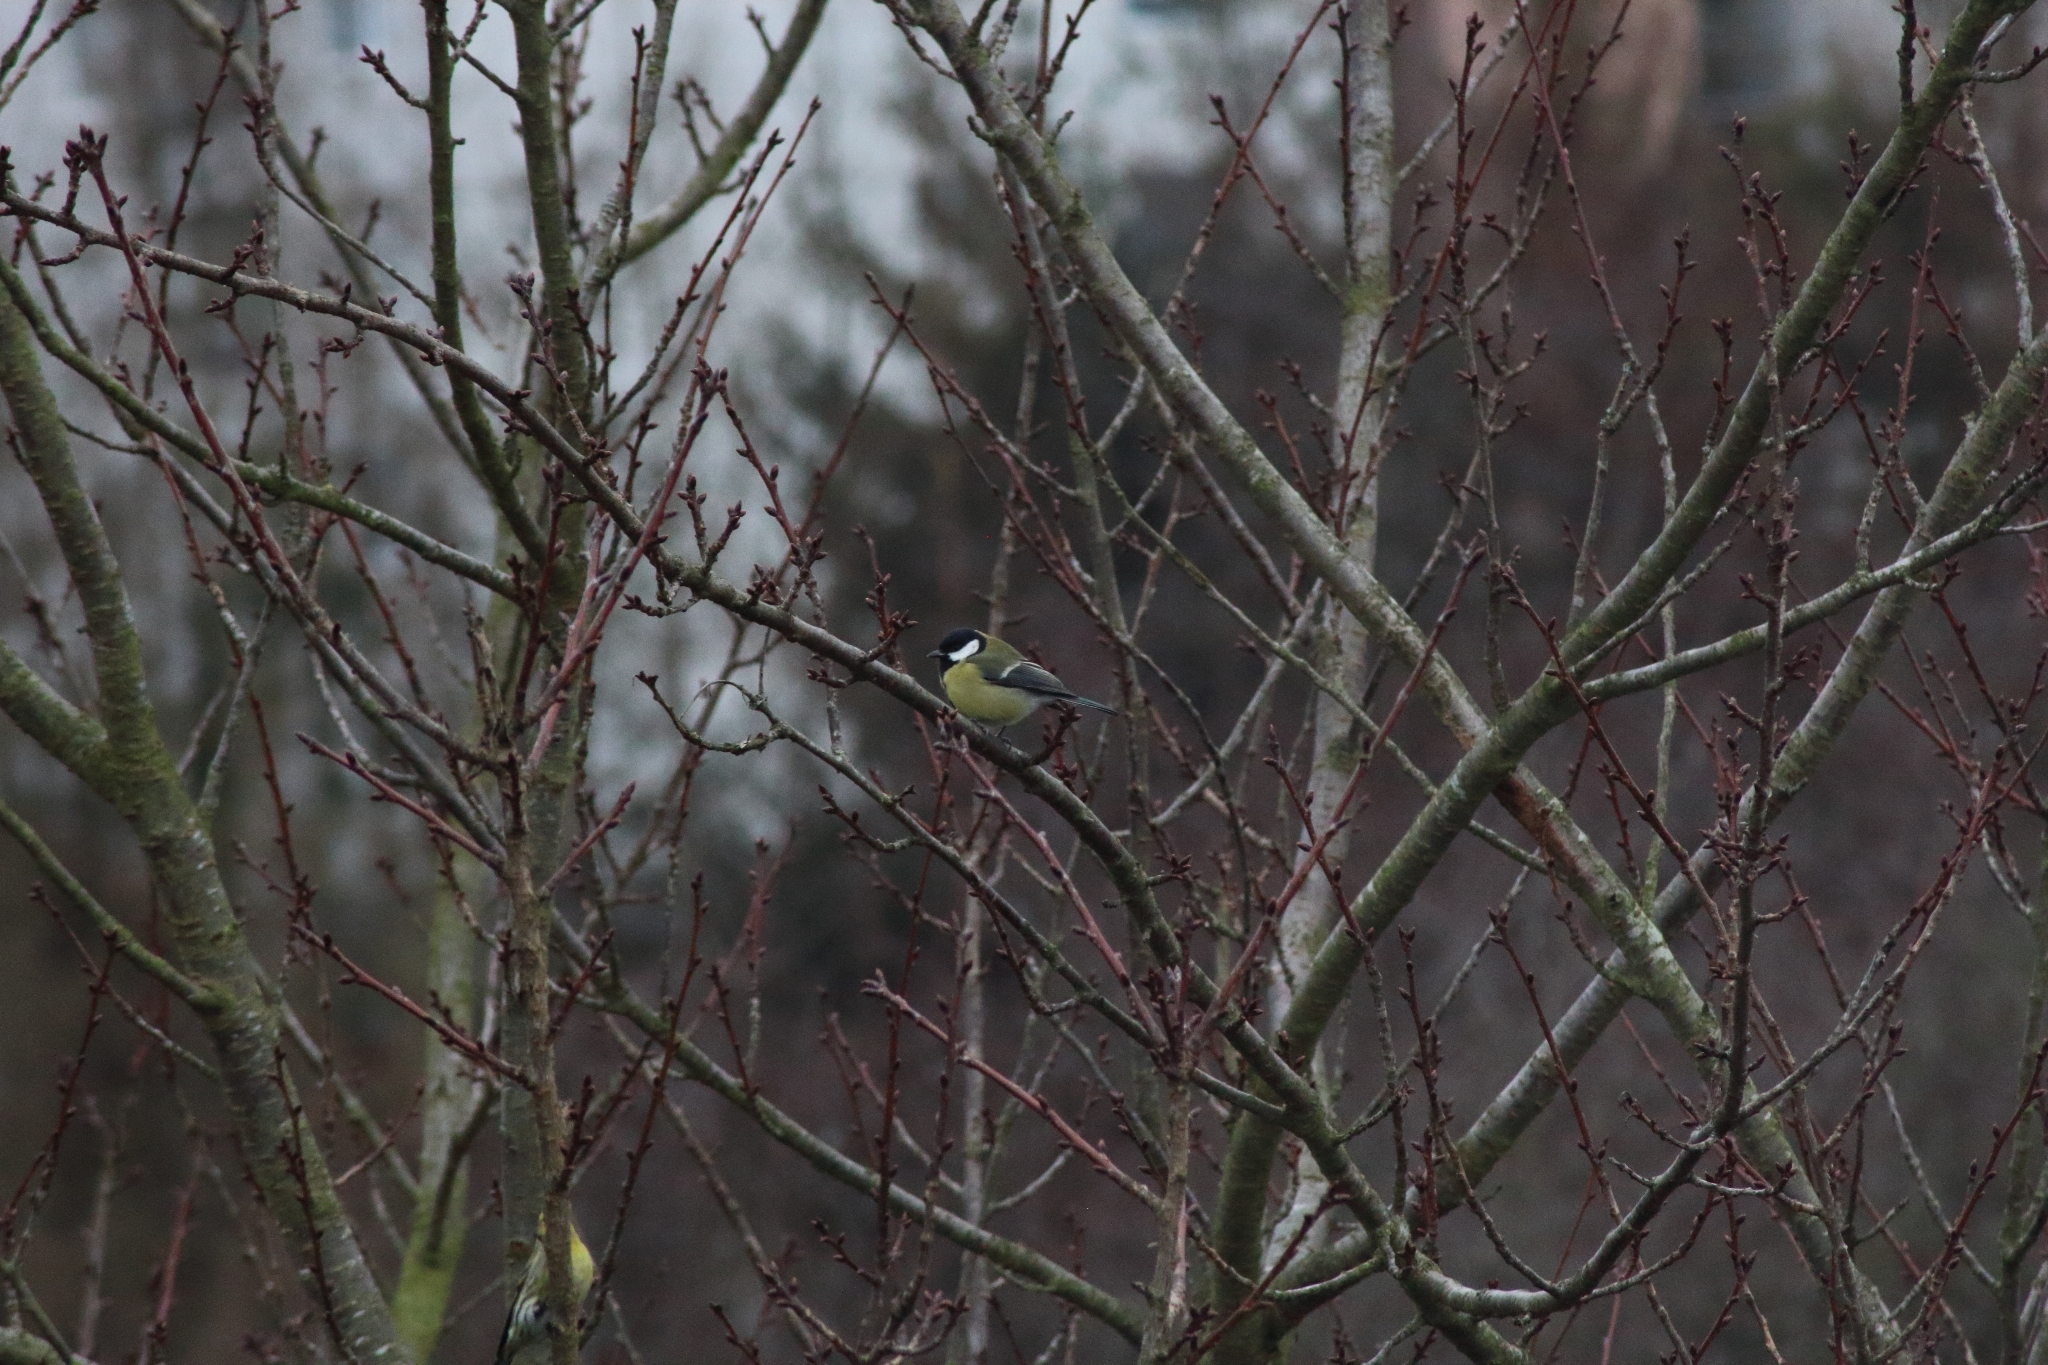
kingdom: Animalia
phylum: Chordata
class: Aves
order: Passeriformes
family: Paridae
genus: Parus
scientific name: Parus major
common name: Great tit
